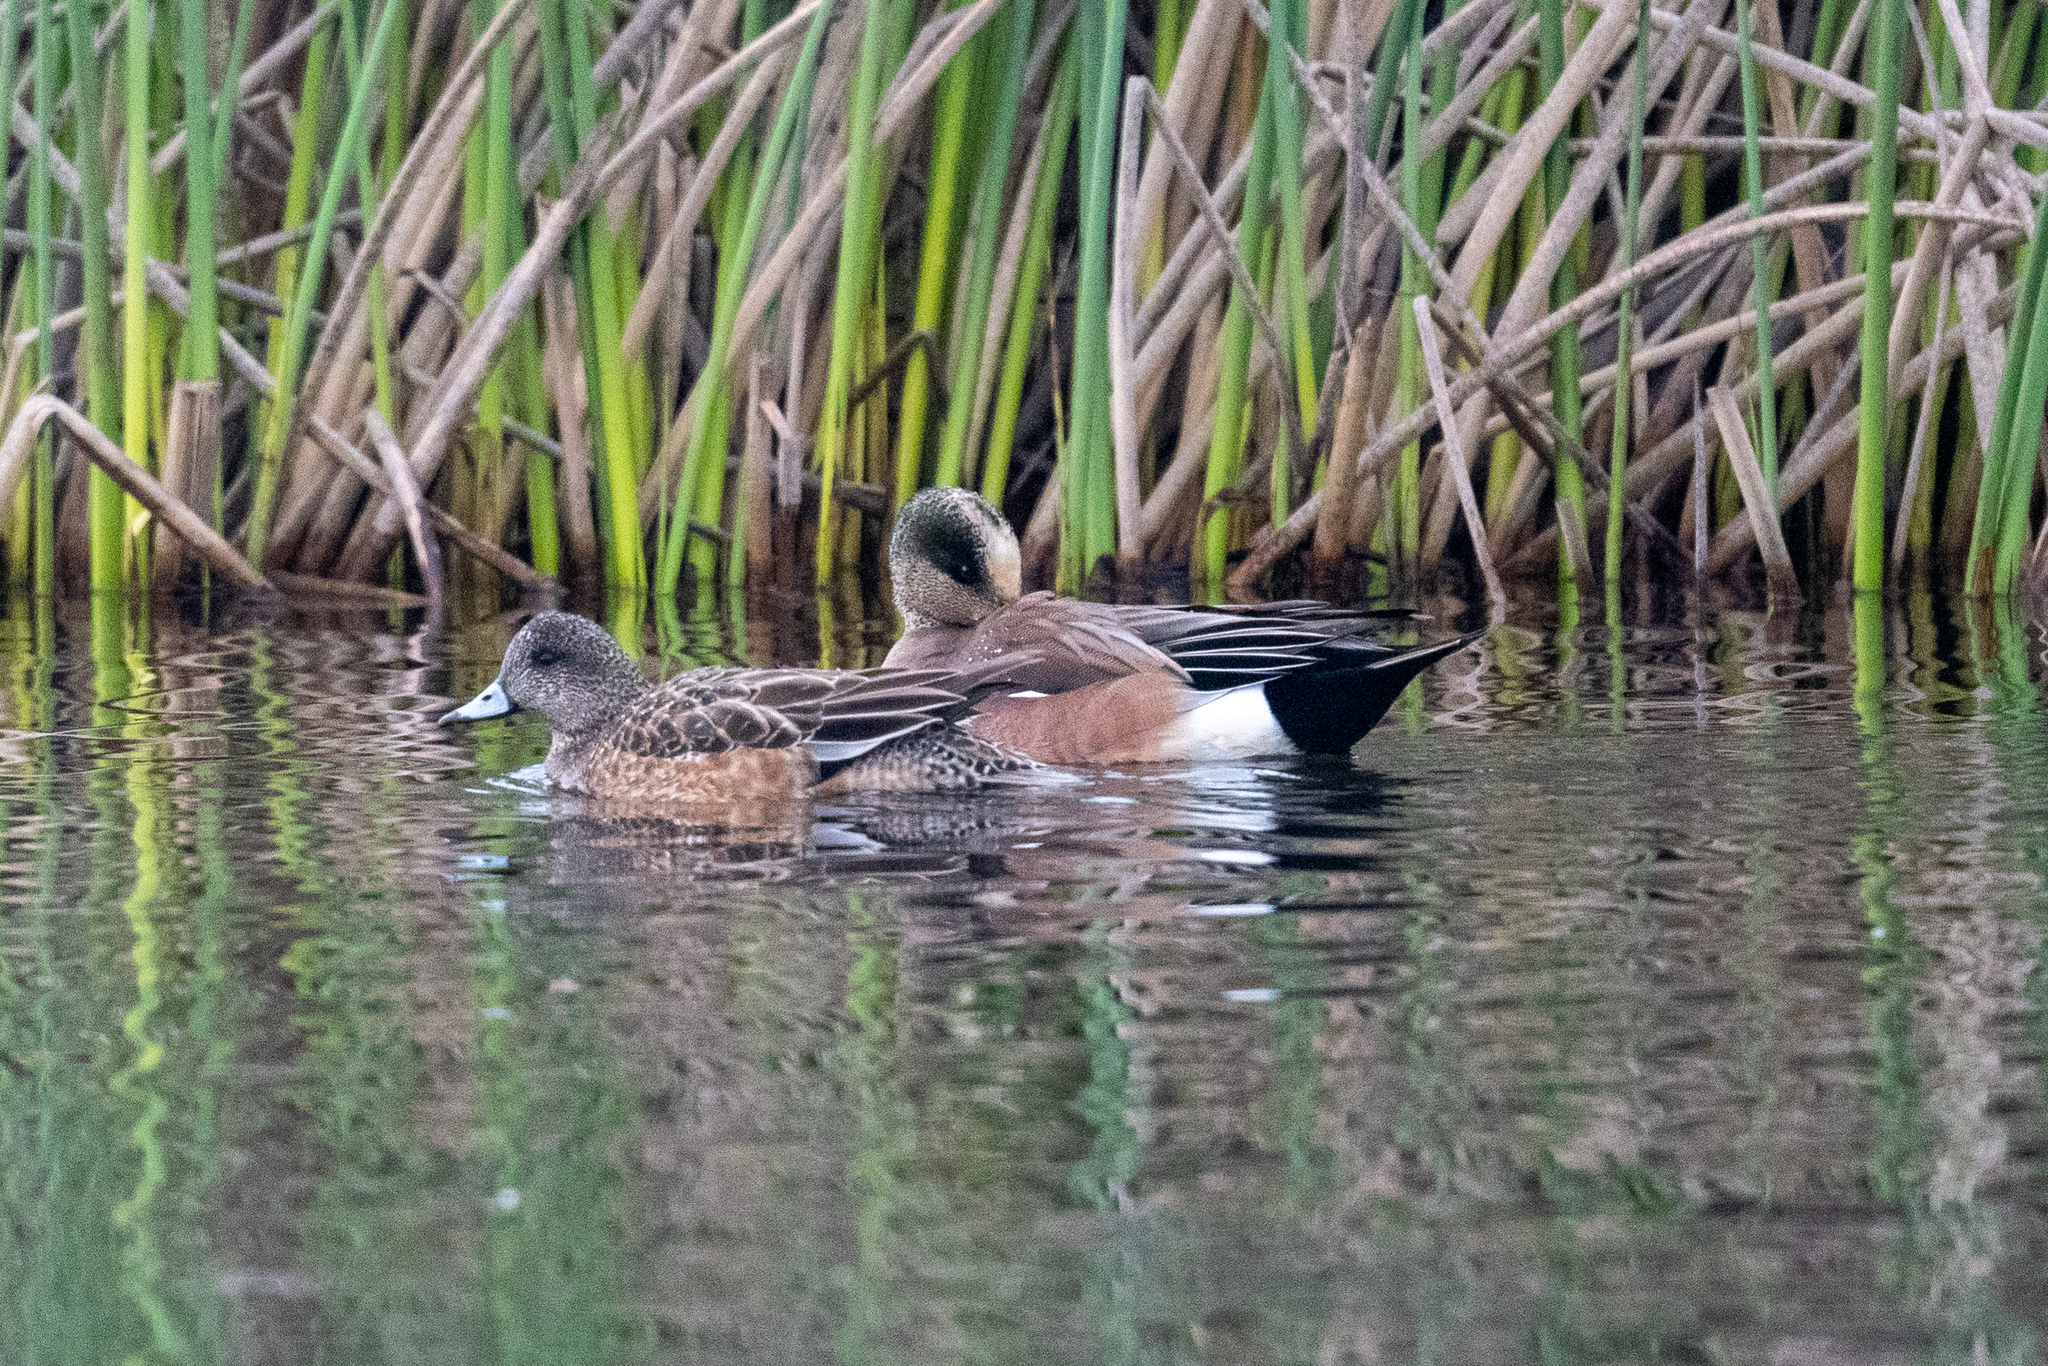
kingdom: Animalia
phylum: Chordata
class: Aves
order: Anseriformes
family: Anatidae
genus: Mareca
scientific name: Mareca americana
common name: American wigeon
